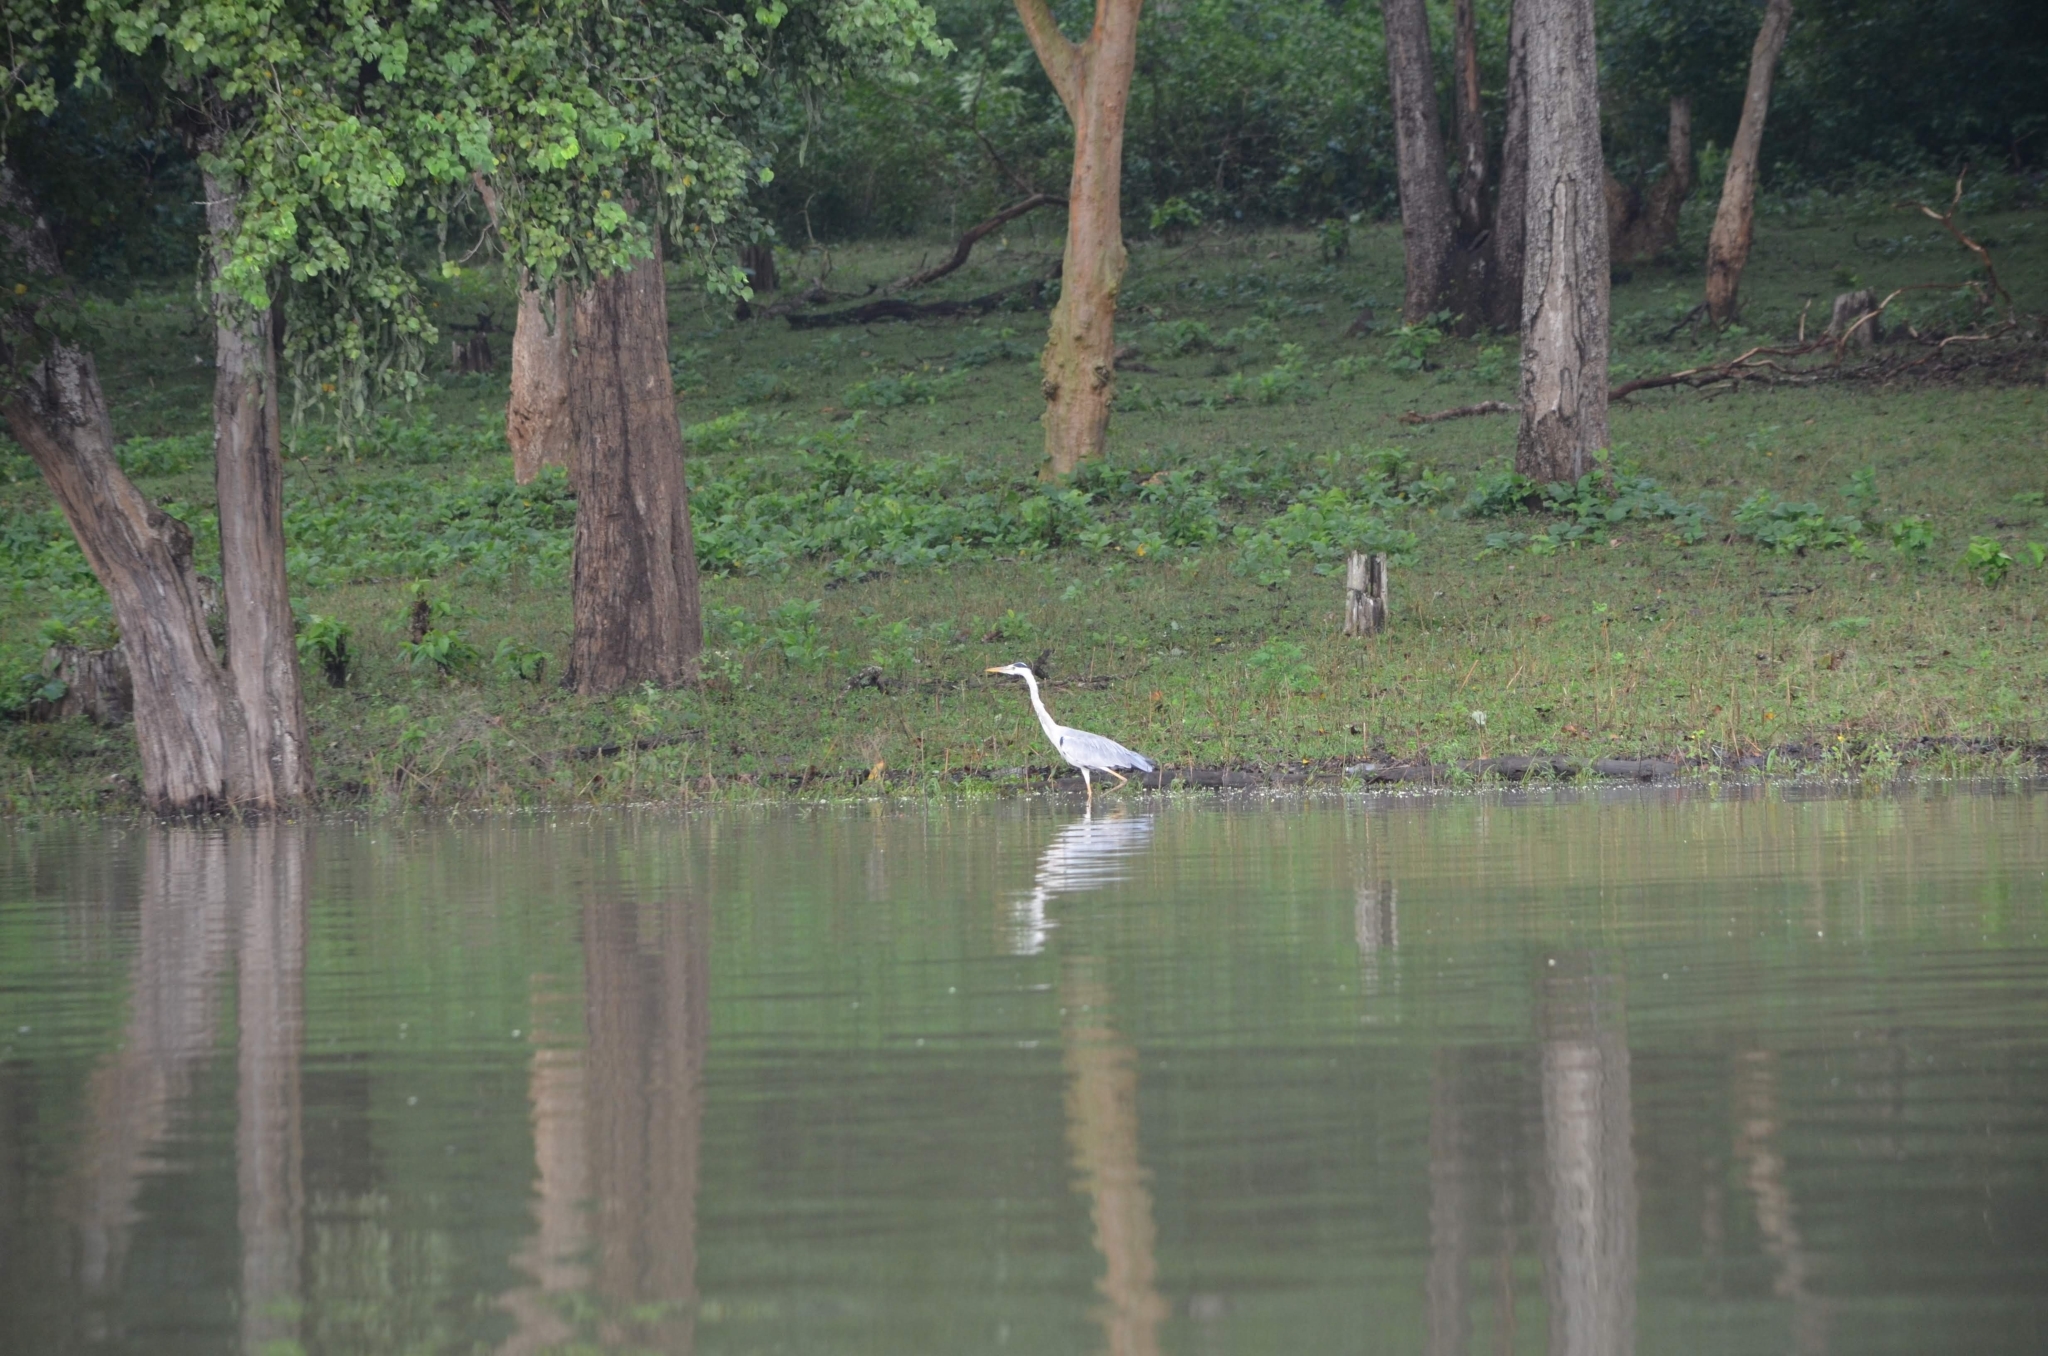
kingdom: Animalia
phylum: Chordata
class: Aves
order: Pelecaniformes
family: Ardeidae
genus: Ardea
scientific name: Ardea cinerea
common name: Grey heron
